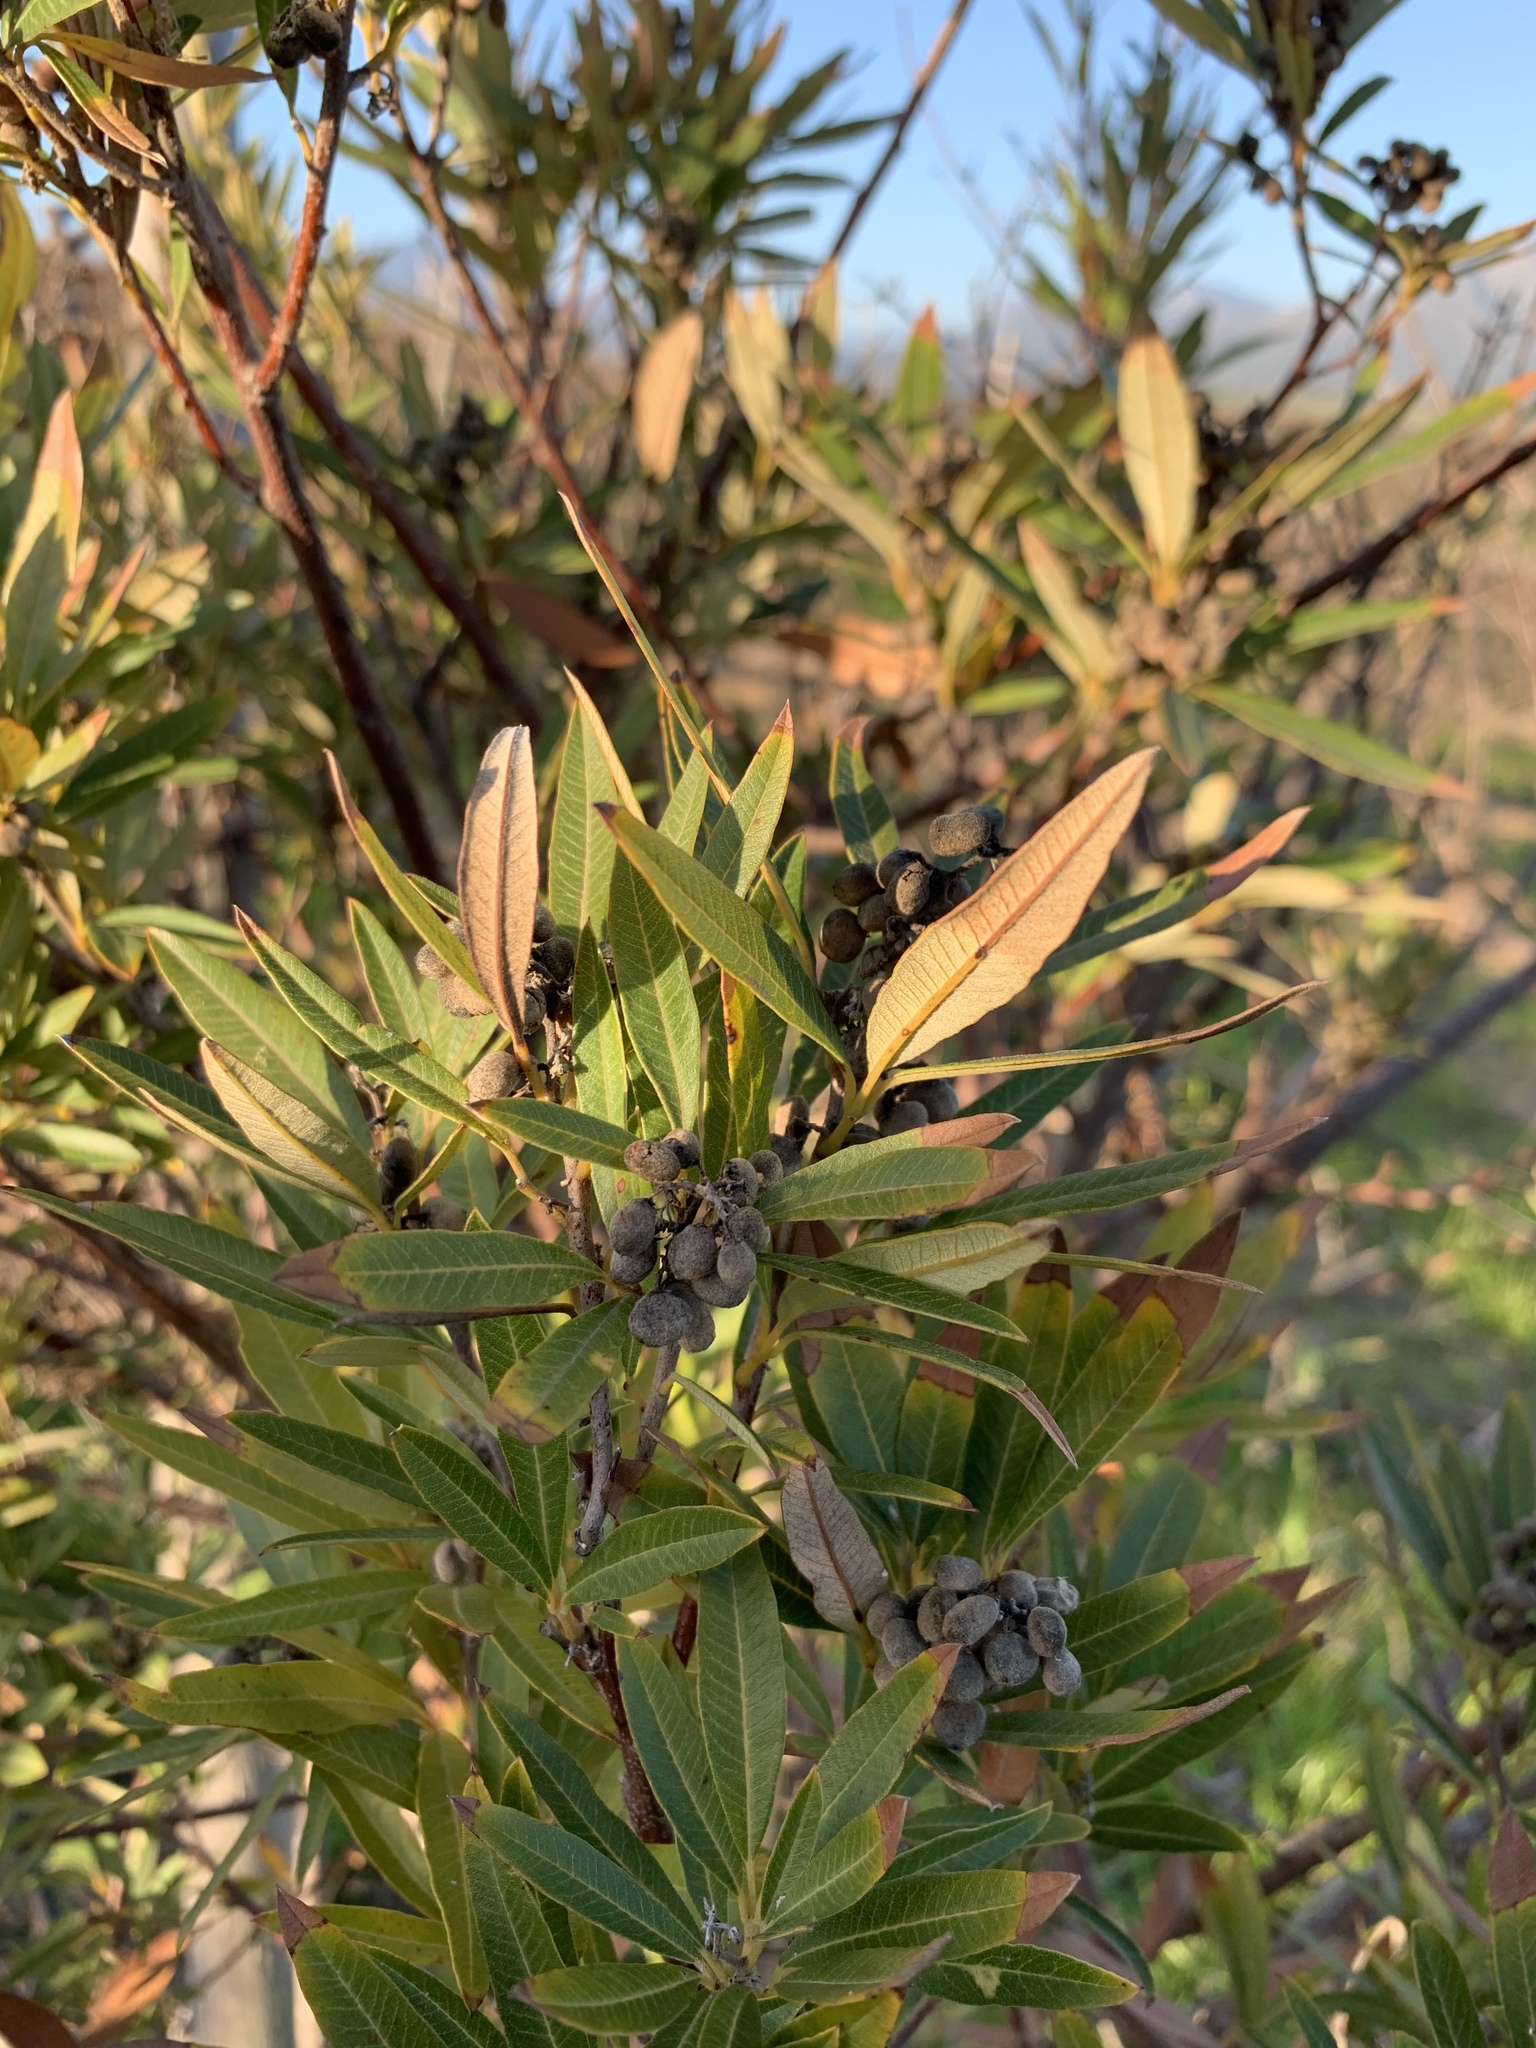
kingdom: Plantae
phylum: Tracheophyta
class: Magnoliopsida
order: Sapindales
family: Anacardiaceae
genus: Searsia
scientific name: Searsia angustifolia
